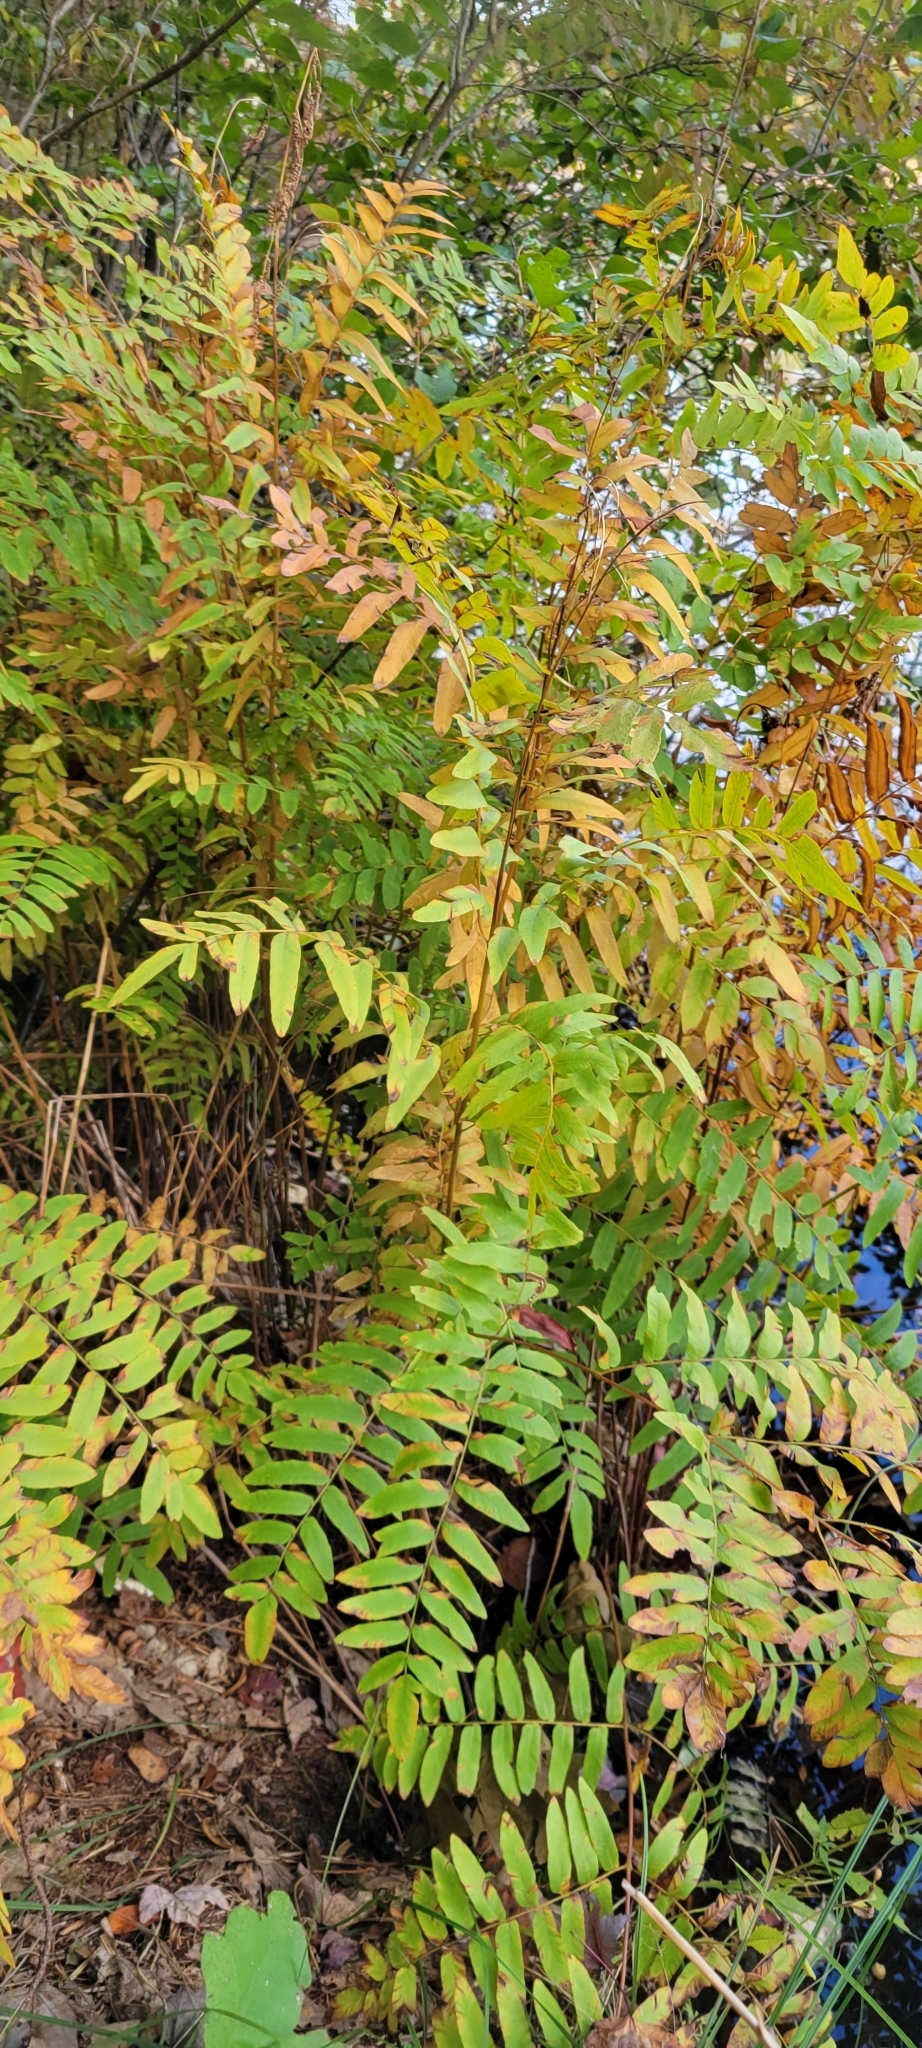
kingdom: Plantae
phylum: Tracheophyta
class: Polypodiopsida
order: Osmundales
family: Osmundaceae
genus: Osmunda
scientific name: Osmunda spectabilis
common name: American royal fern
